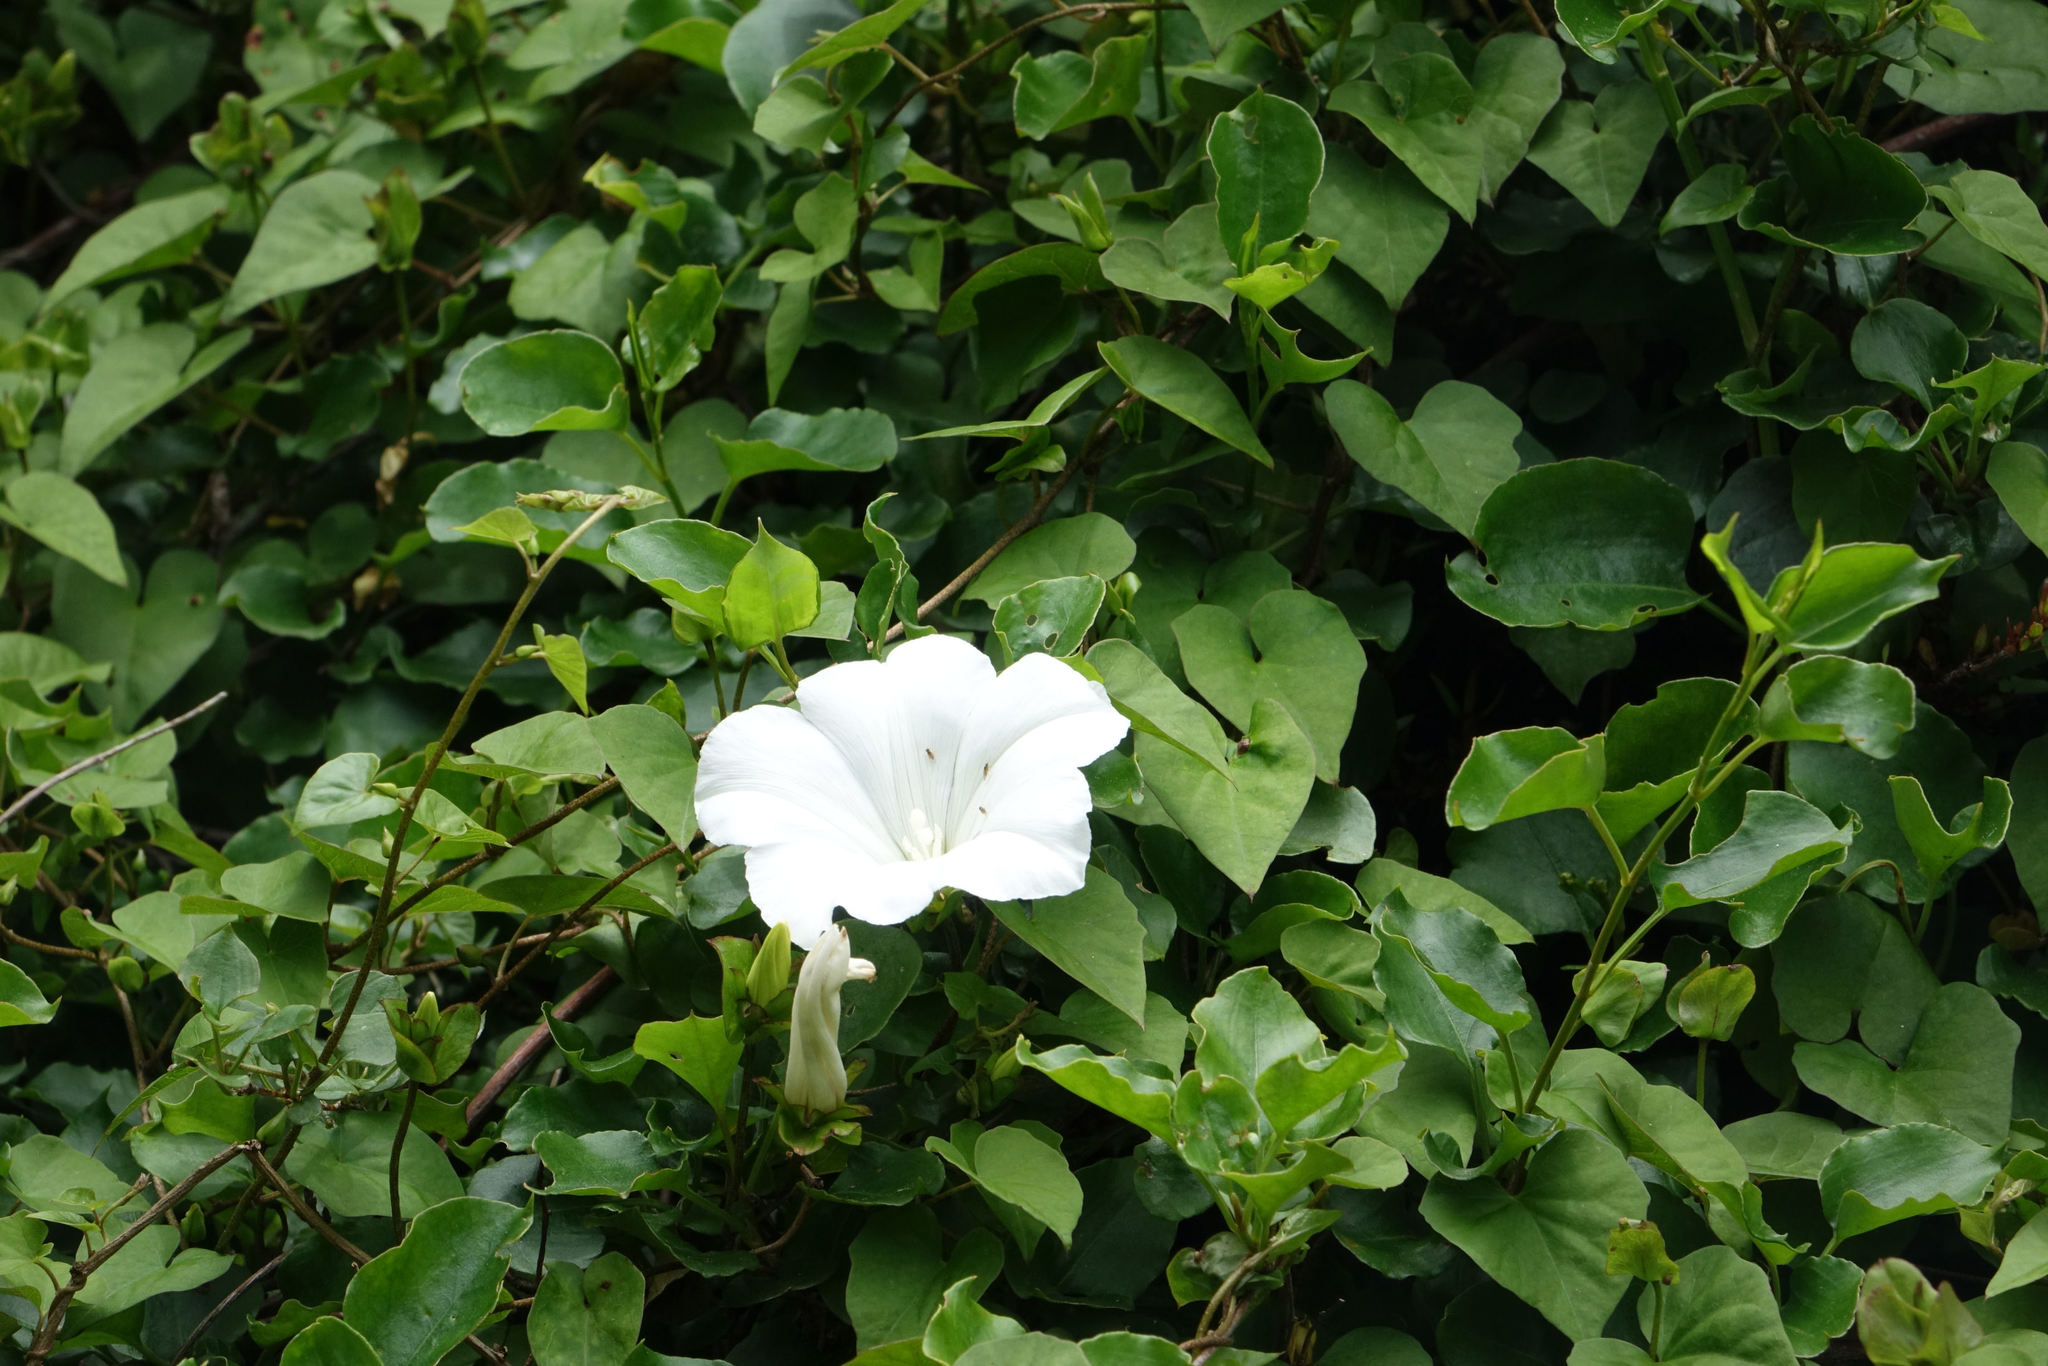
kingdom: Plantae
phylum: Tracheophyta
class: Magnoliopsida
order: Solanales
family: Convolvulaceae
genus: Calystegia
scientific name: Calystegia tuguriorum
